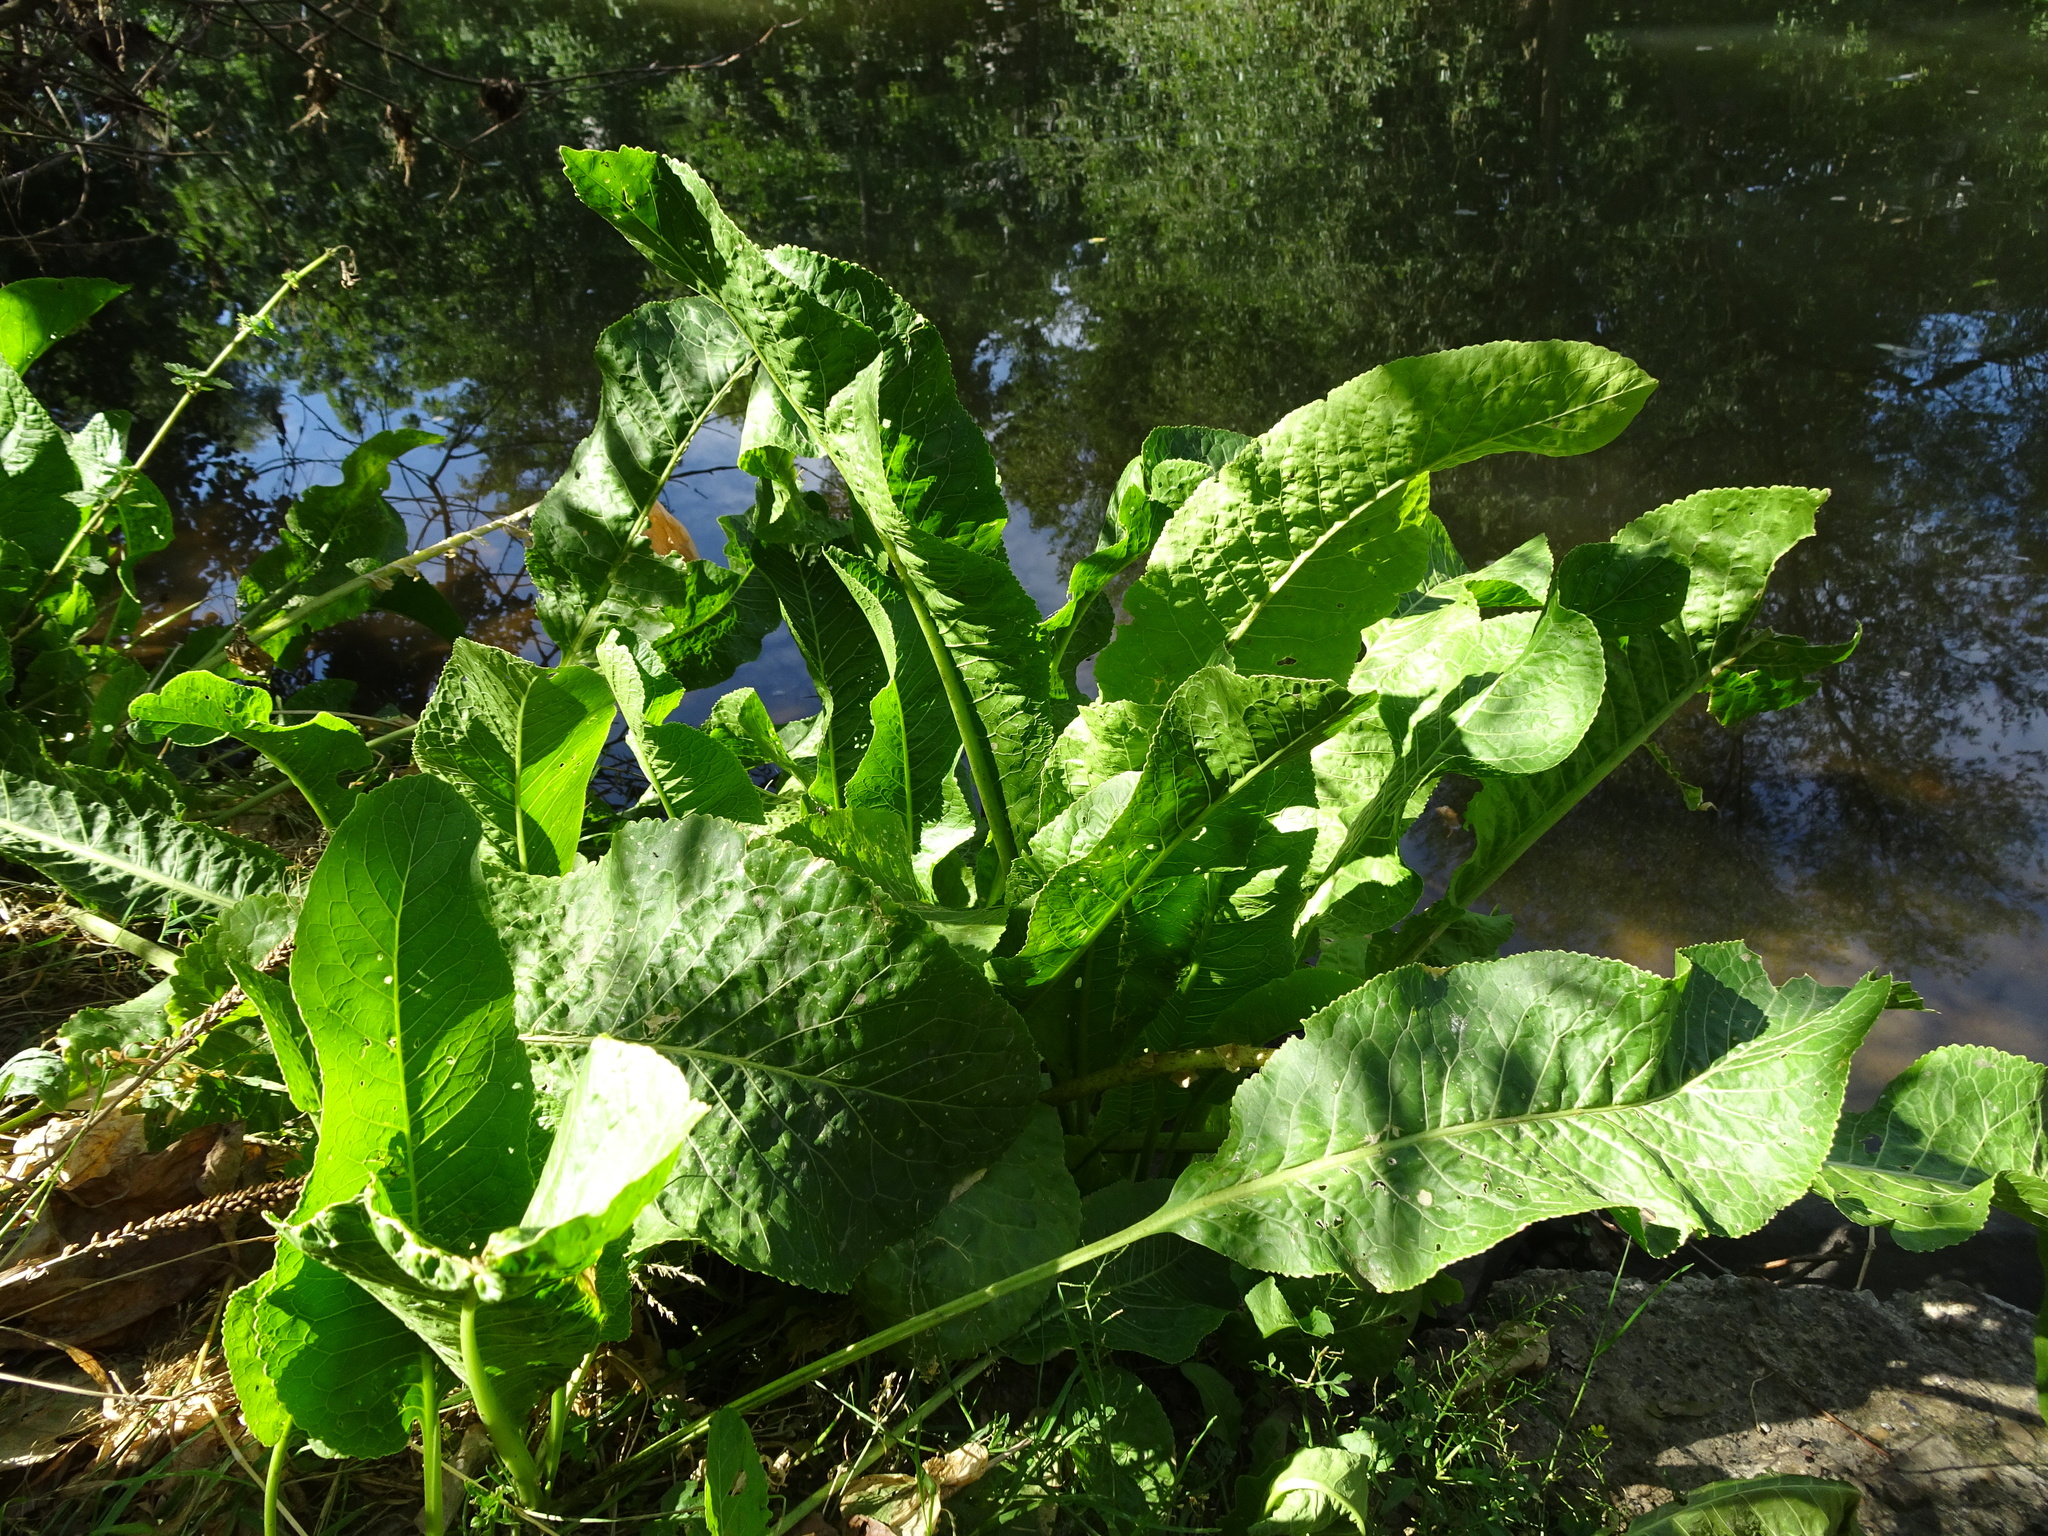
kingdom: Plantae
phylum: Tracheophyta
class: Magnoliopsida
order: Brassicales
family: Brassicaceae
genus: Armoracia
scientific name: Armoracia rusticana
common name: Horseradish
